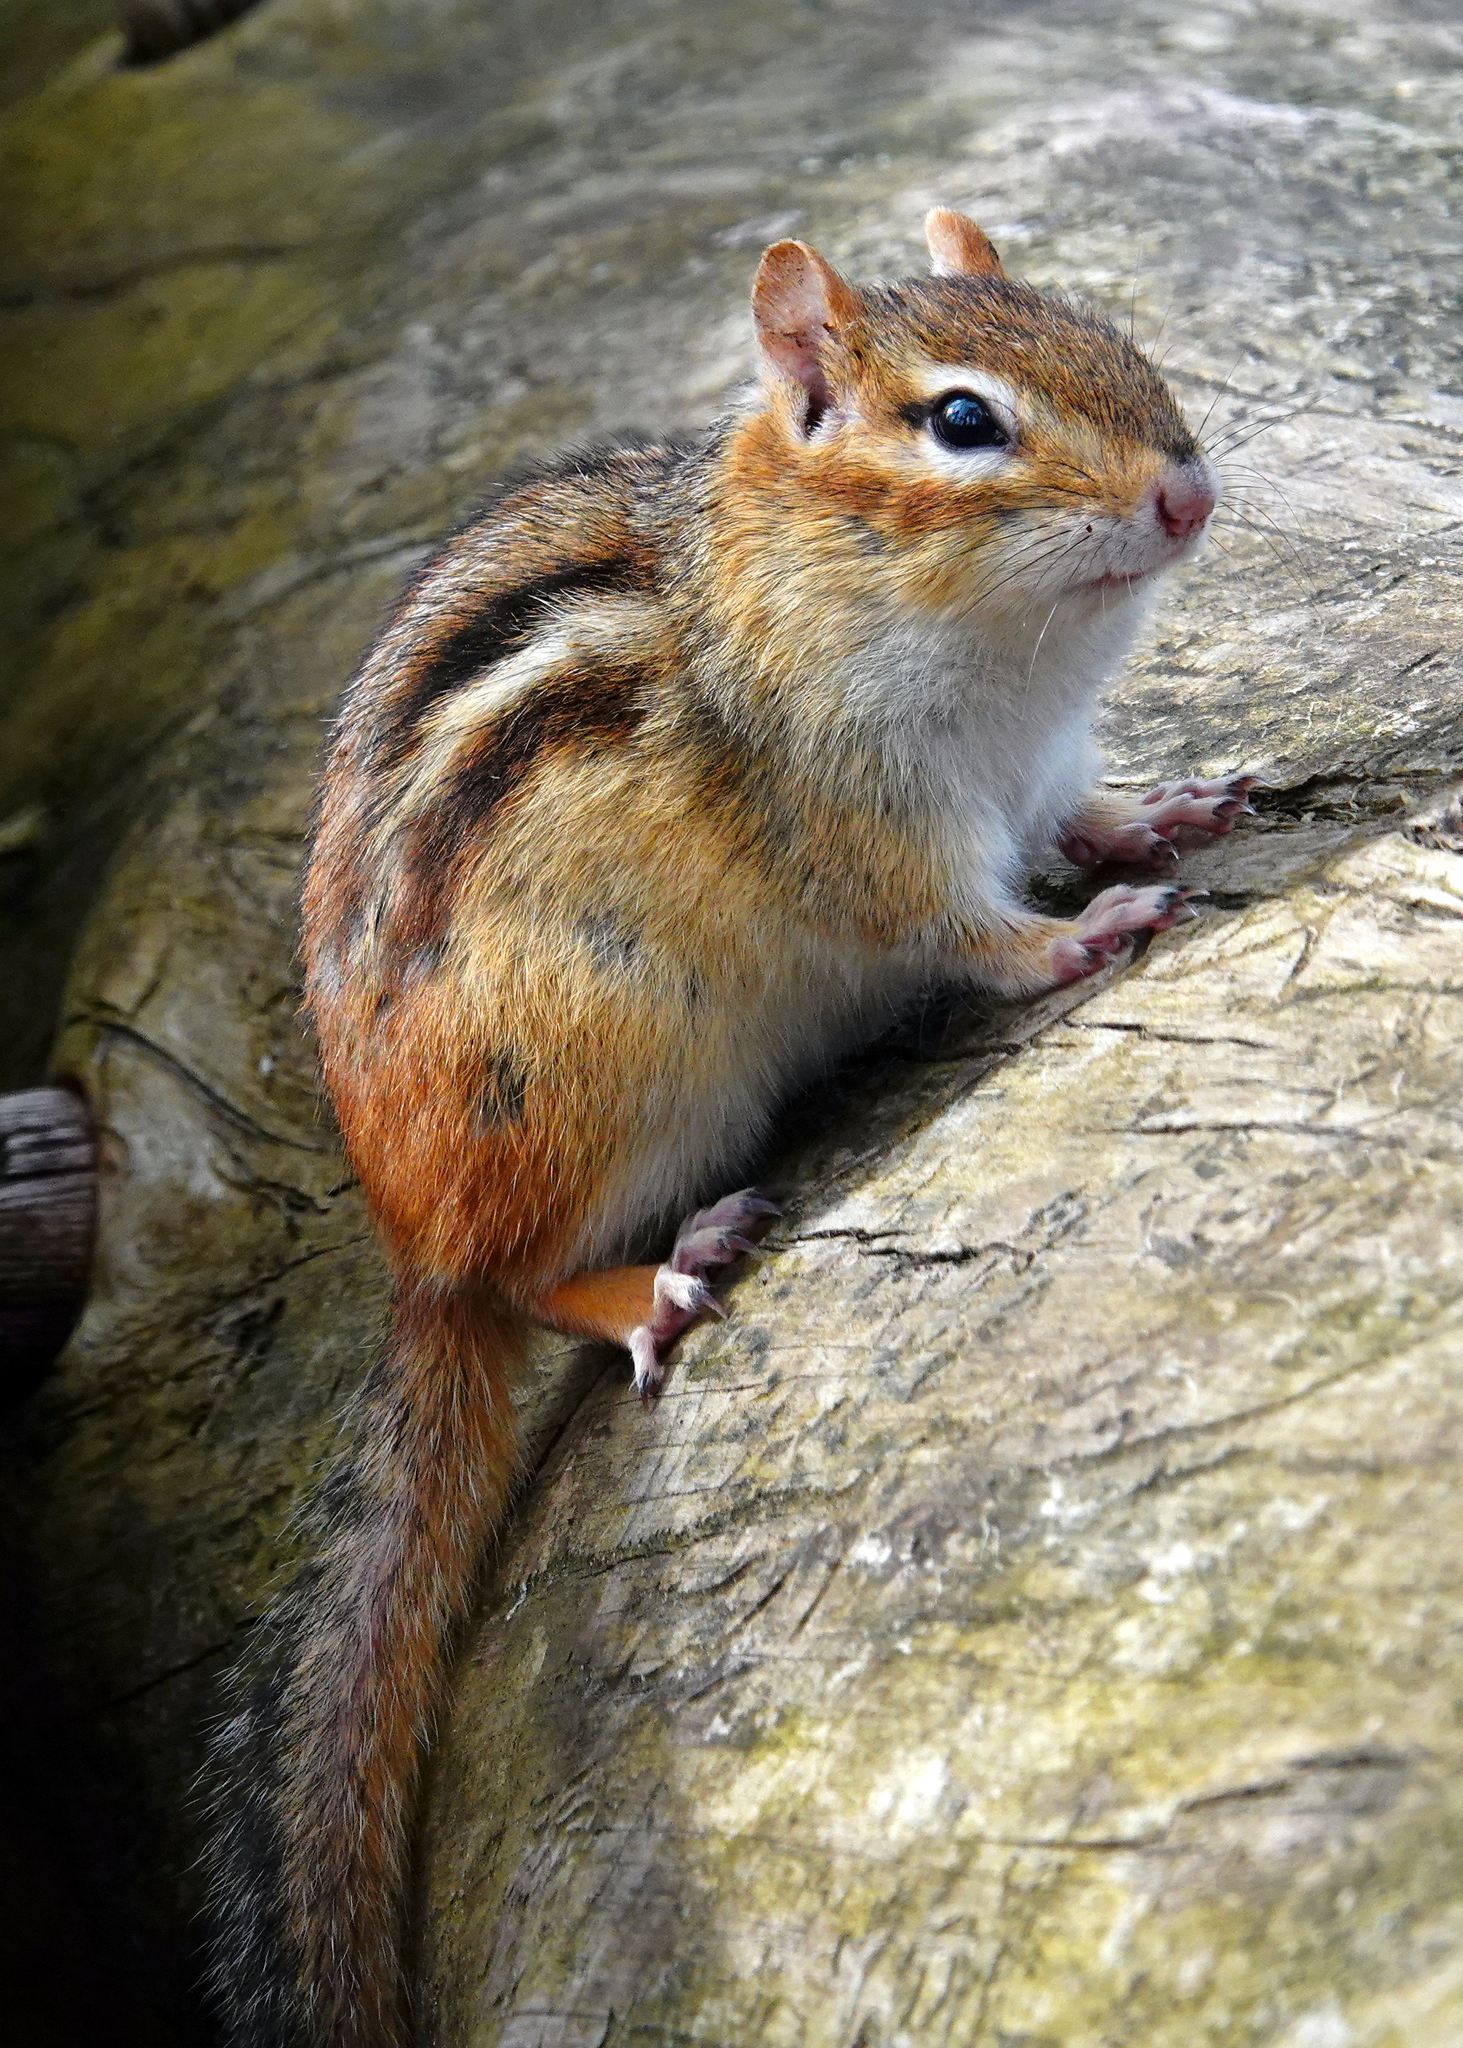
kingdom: Animalia
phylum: Chordata
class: Mammalia
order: Rodentia
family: Sciuridae
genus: Tamias
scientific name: Tamias striatus
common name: Eastern chipmunk
